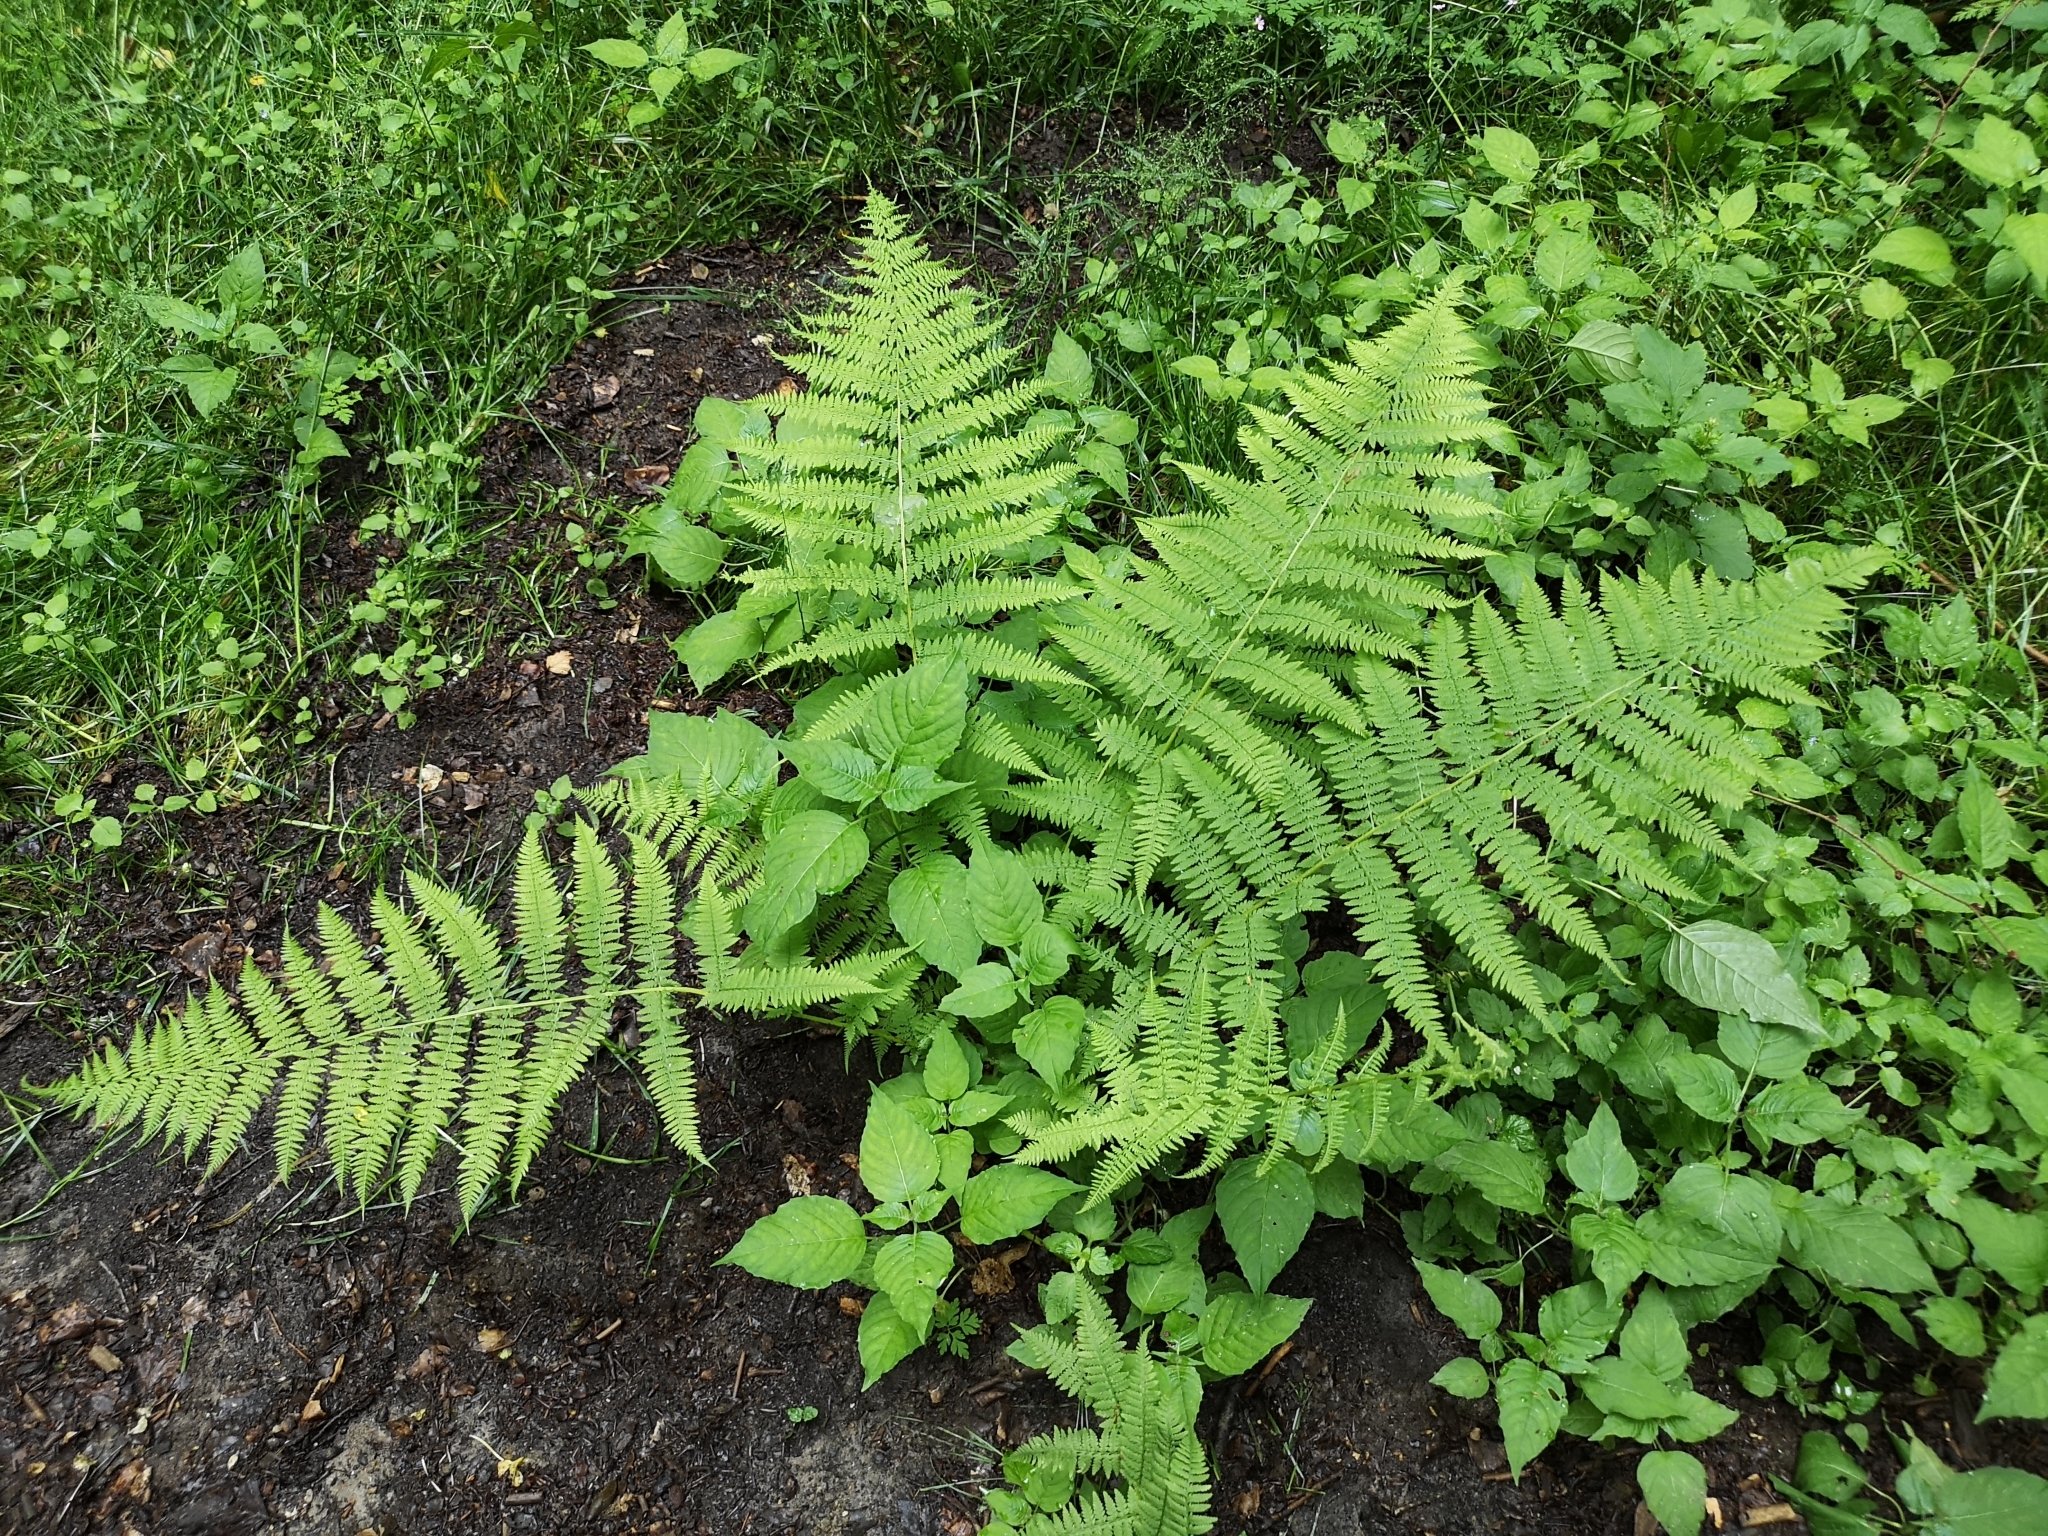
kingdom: Plantae
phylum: Tracheophyta
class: Polypodiopsida
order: Polypodiales
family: Athyriaceae
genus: Athyrium
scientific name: Athyrium filix-femina
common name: Lady fern
